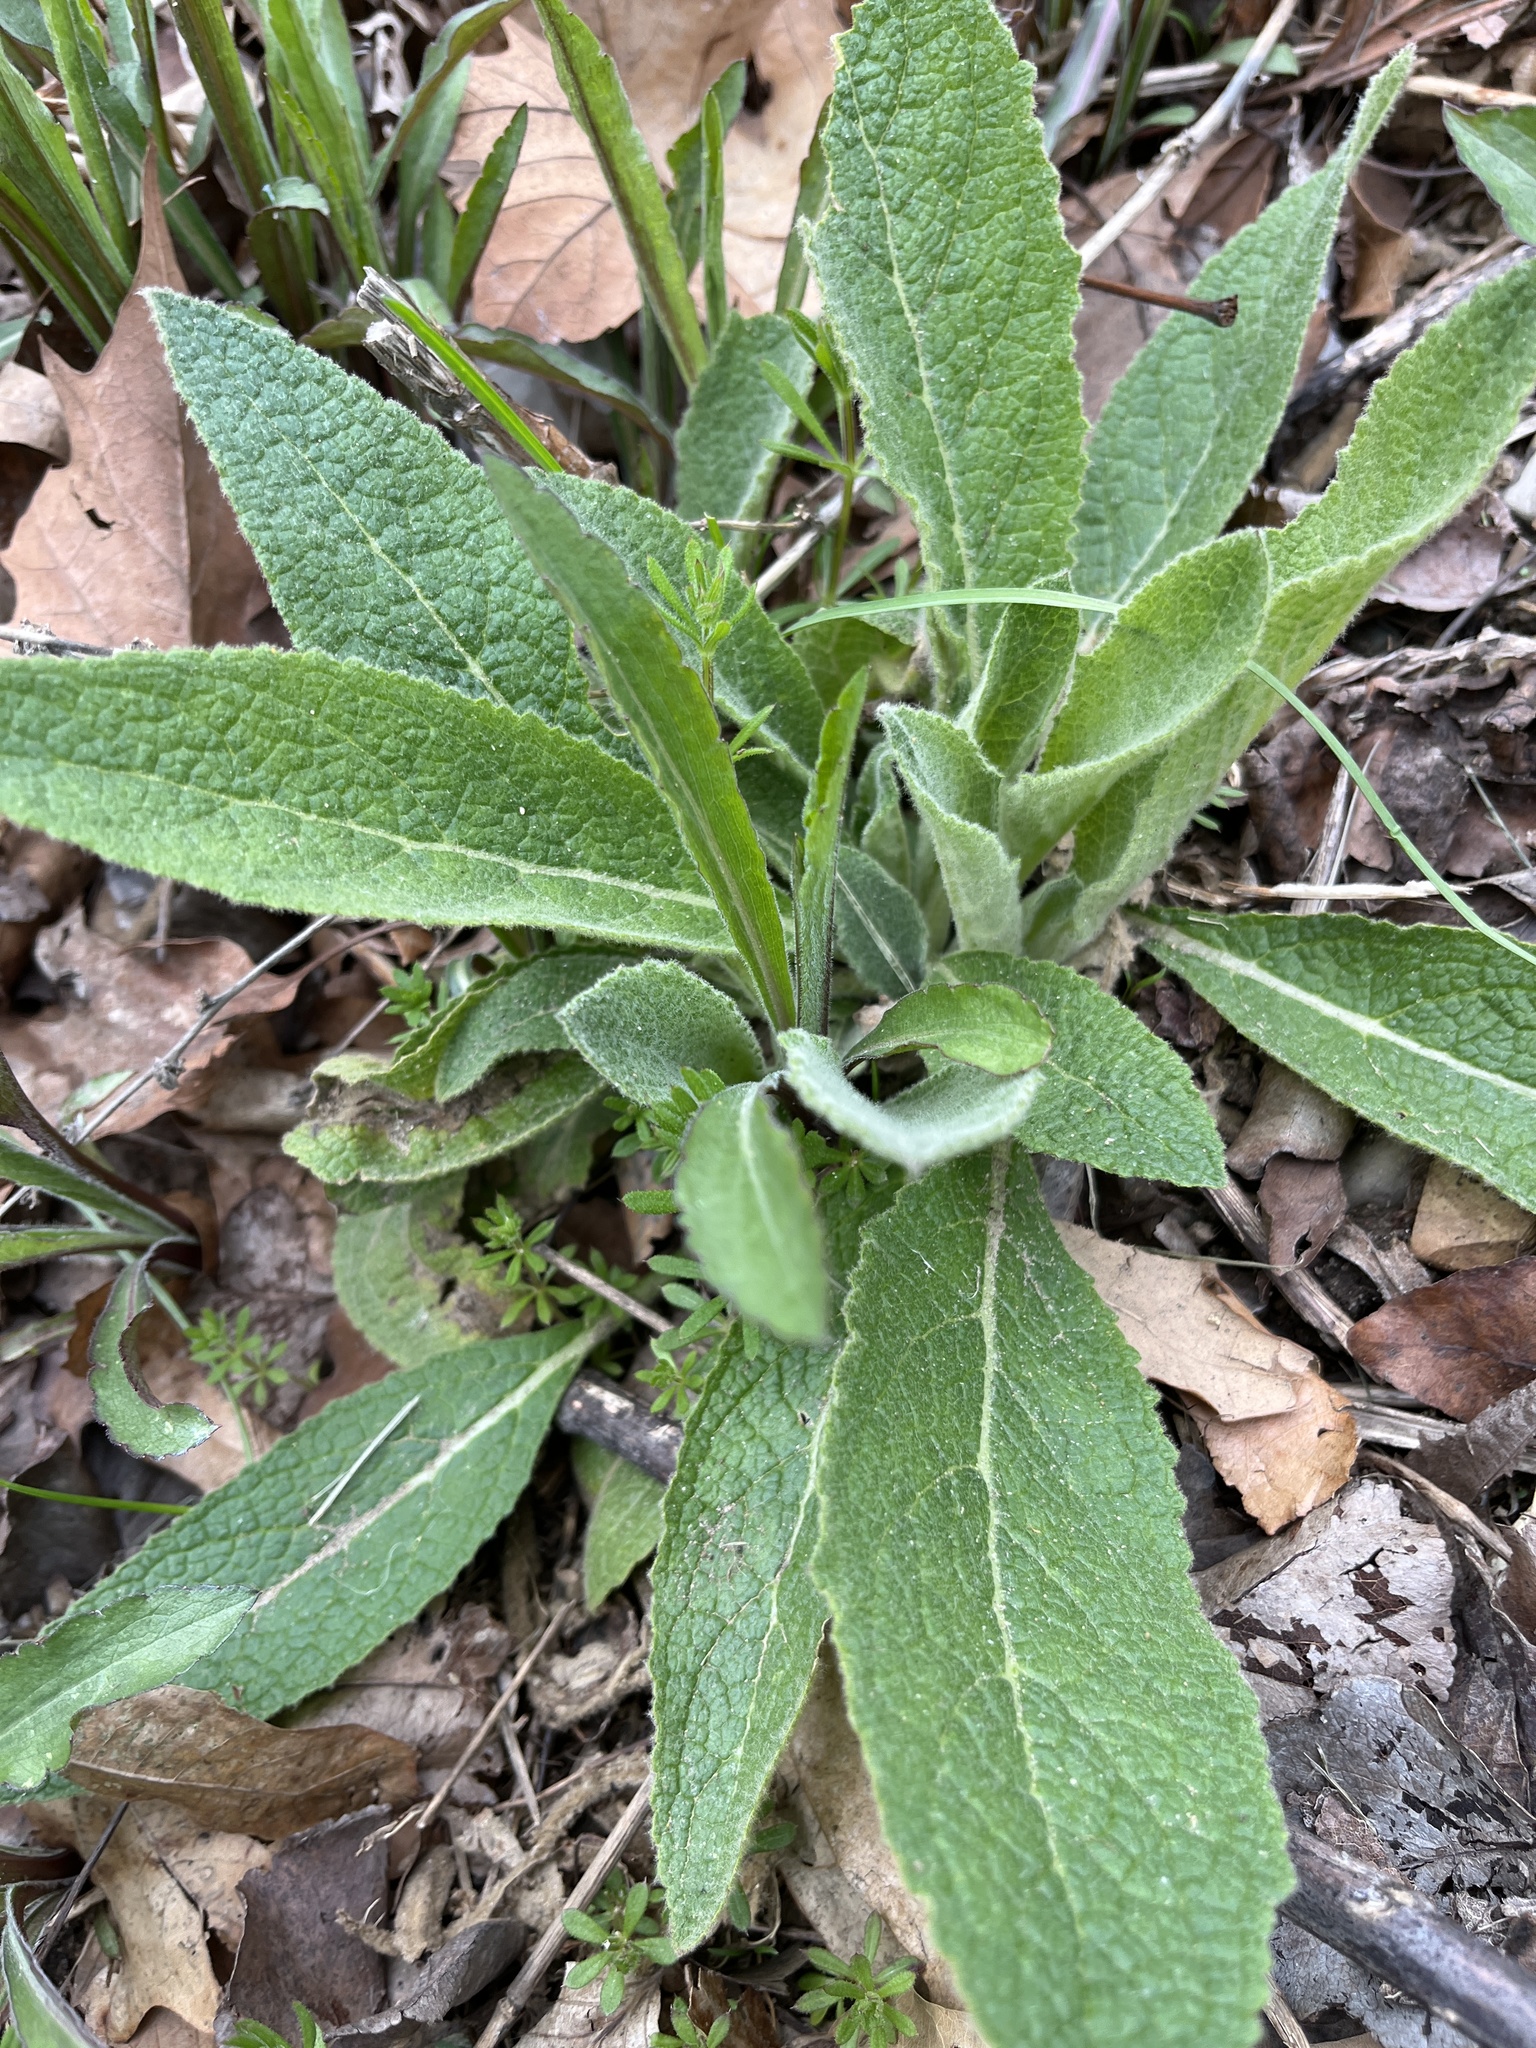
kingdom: Plantae
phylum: Tracheophyta
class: Magnoliopsida
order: Lamiales
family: Plantaginaceae
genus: Digitalis
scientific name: Digitalis purpurea
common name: Foxglove
